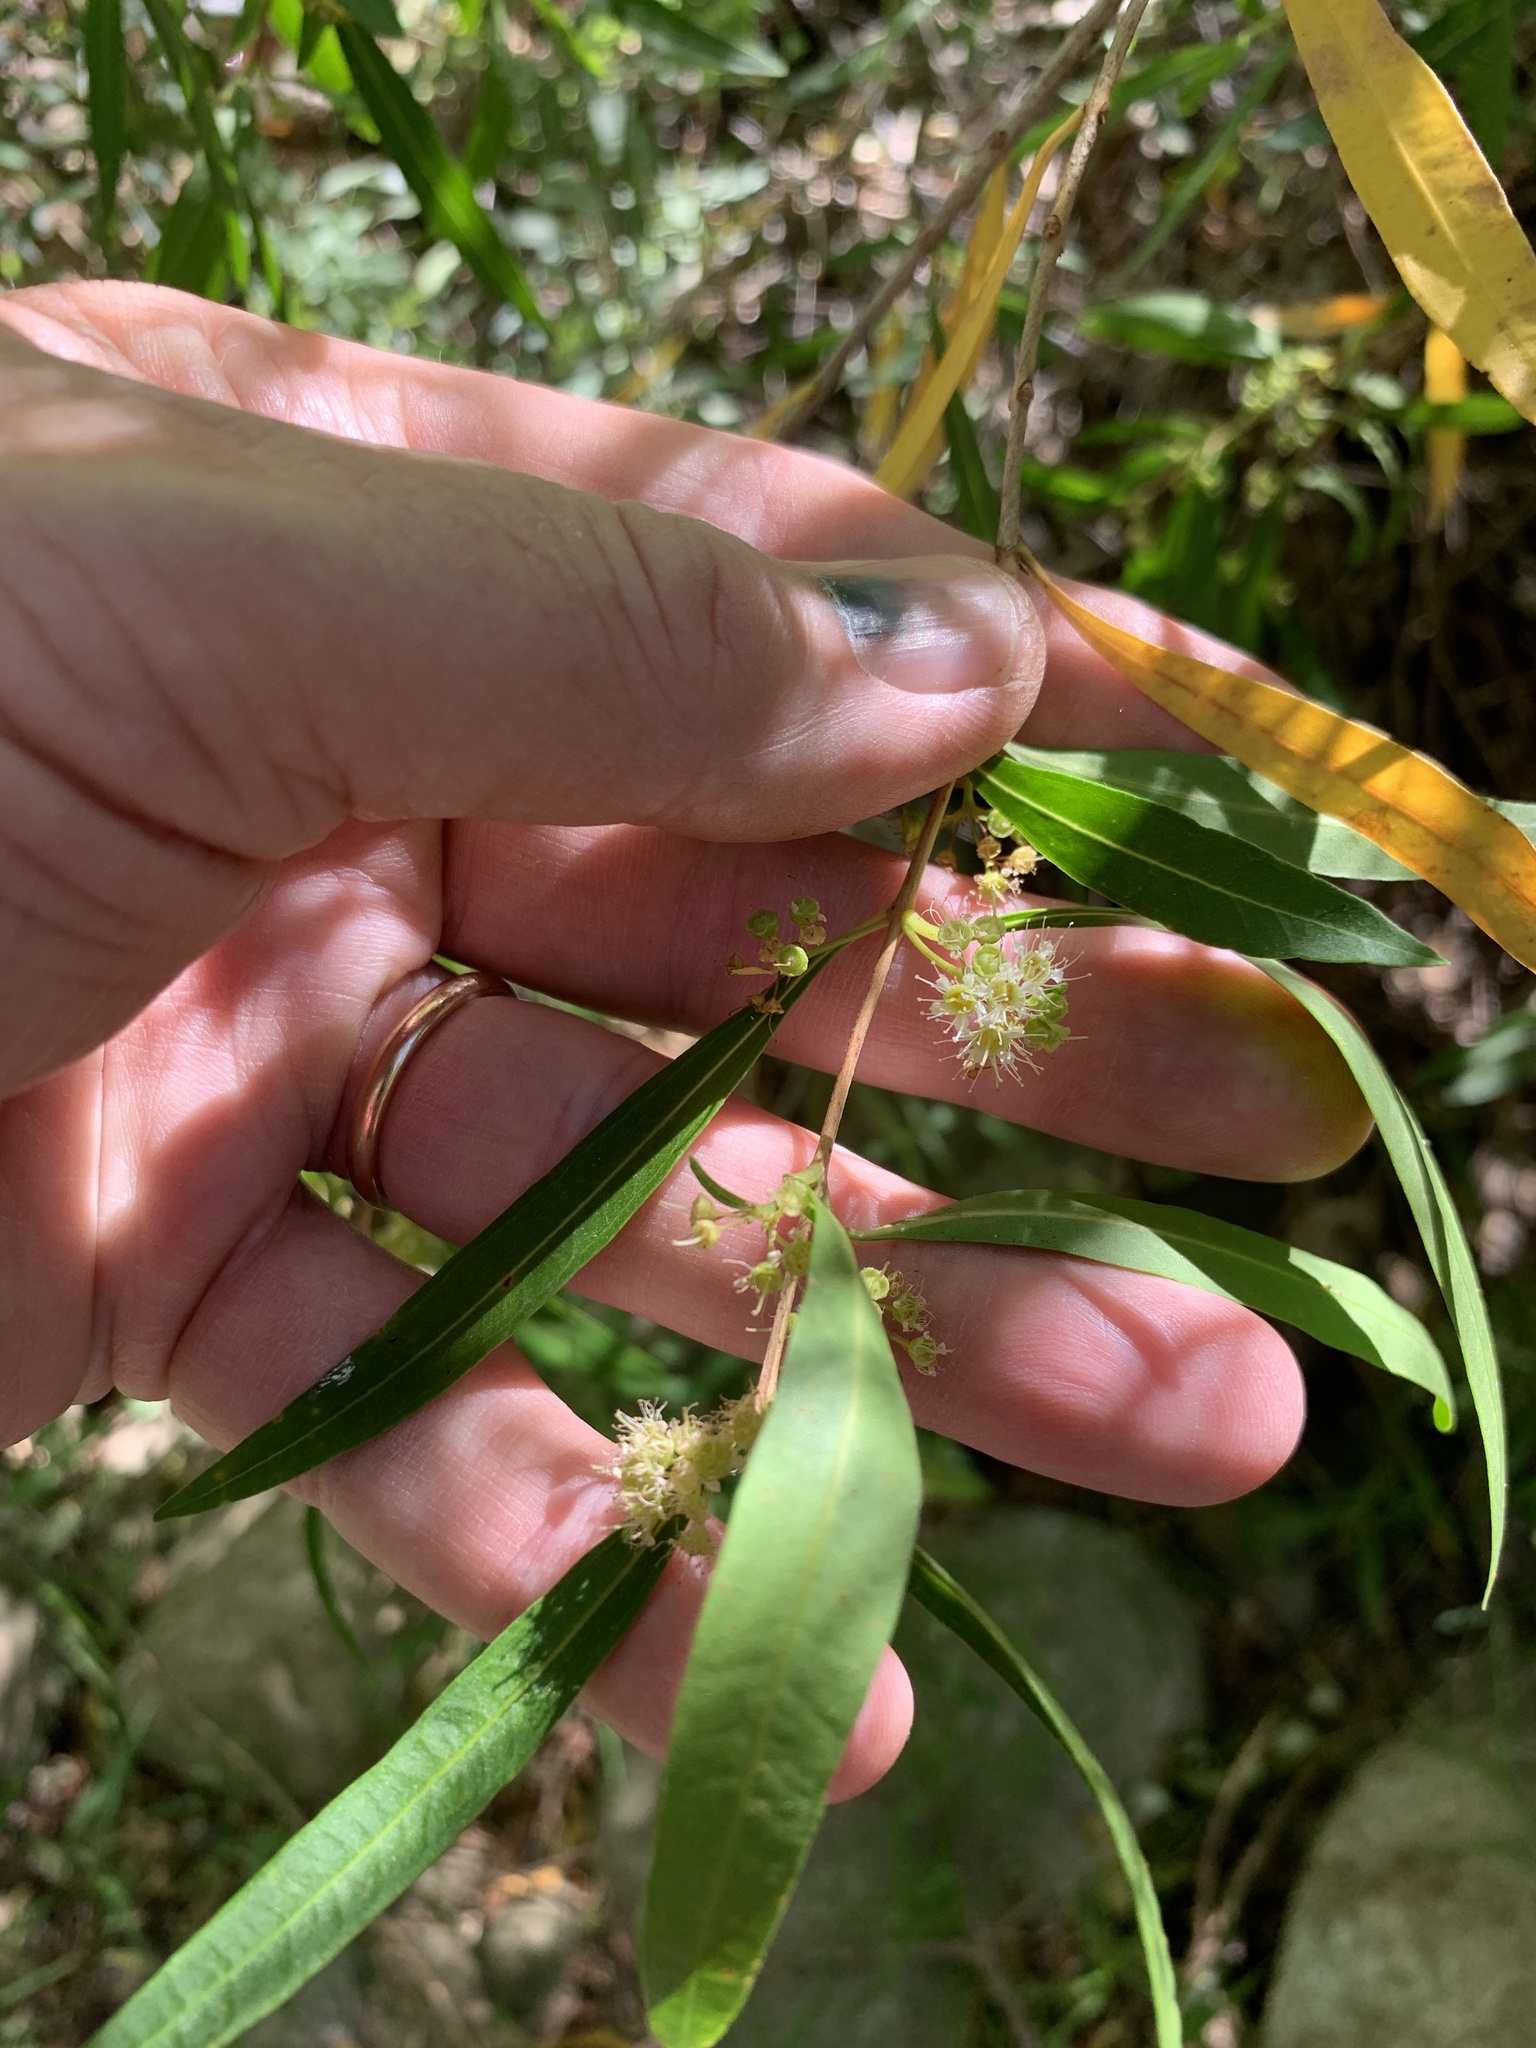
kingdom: Plantae
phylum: Tracheophyta
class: Magnoliopsida
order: Myrtales
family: Myrtaceae
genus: Callistemon
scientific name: Callistemon lanceolatus
